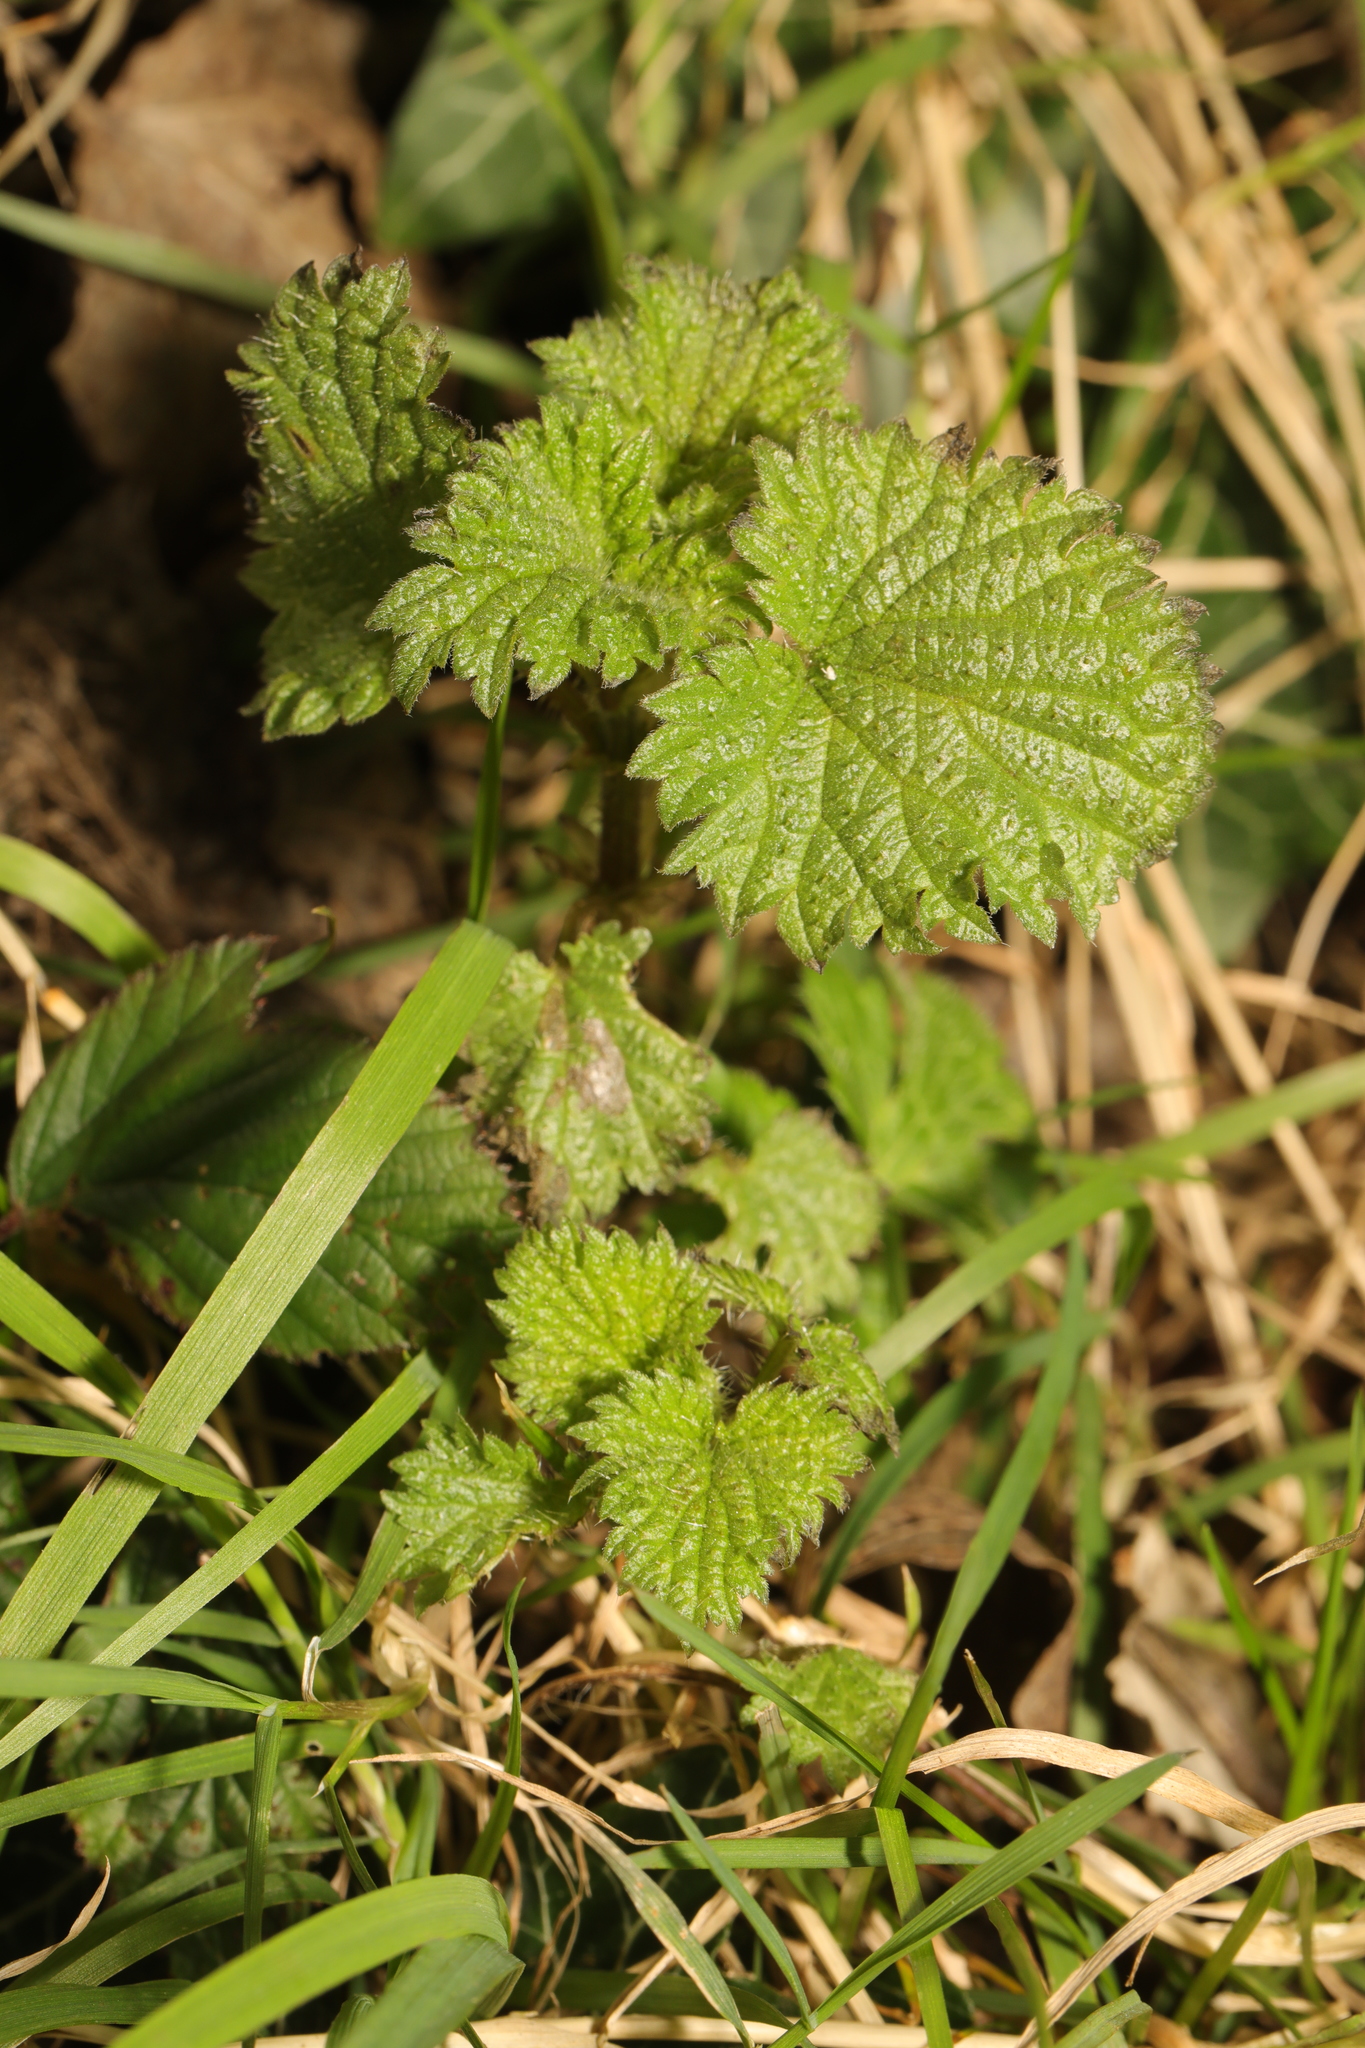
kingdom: Plantae
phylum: Tracheophyta
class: Magnoliopsida
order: Rosales
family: Urticaceae
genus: Urtica
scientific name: Urtica dioica
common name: Common nettle
